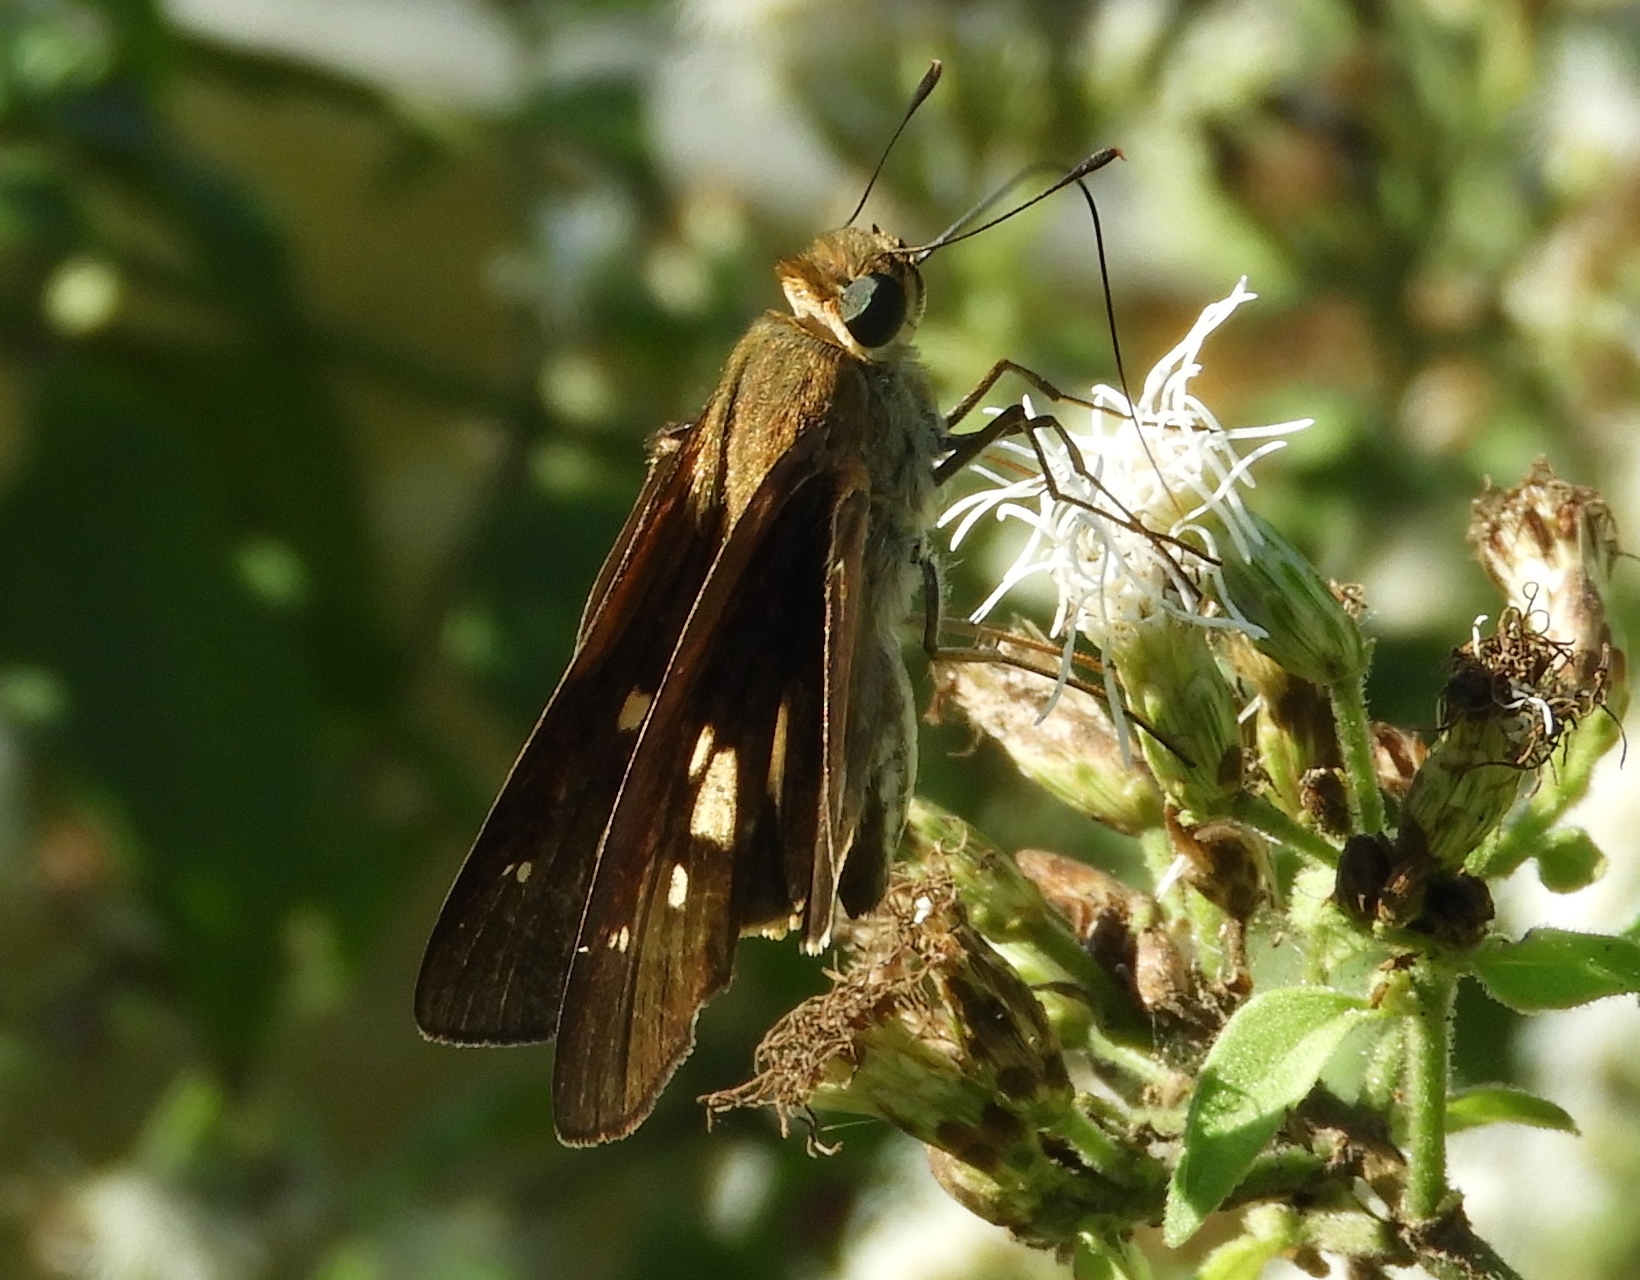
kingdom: Animalia
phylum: Arthropoda
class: Insecta
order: Lepidoptera
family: Hesperiidae
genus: Turesis
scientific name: Turesis lucas
